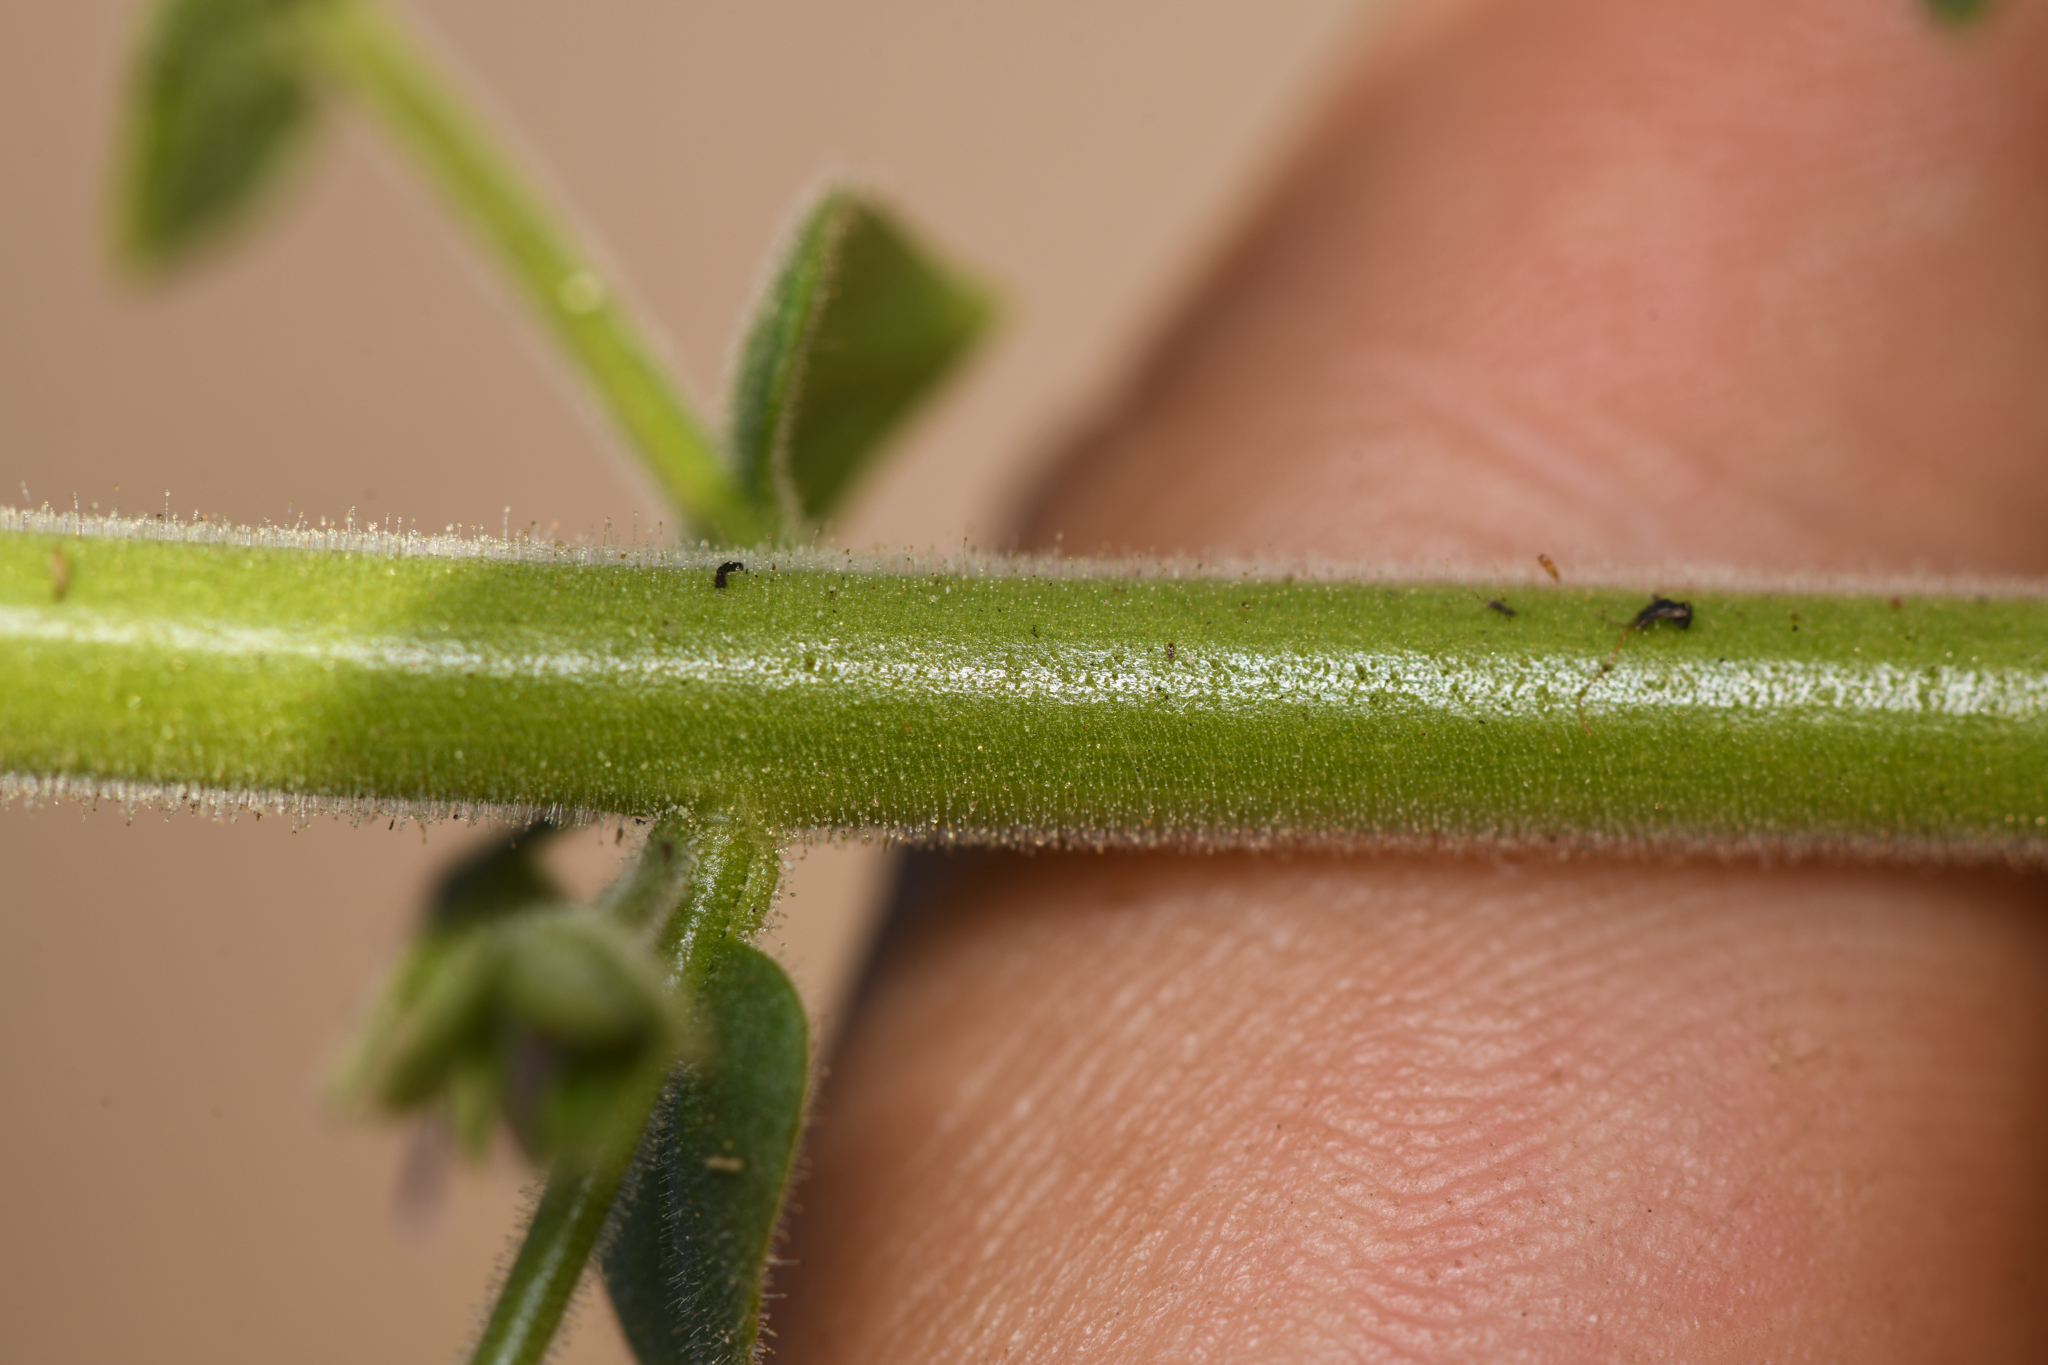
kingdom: Plantae
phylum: Tracheophyta
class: Magnoliopsida
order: Lamiales
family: Plantaginaceae
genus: Sairocarpus
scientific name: Sairocarpus nuttallianus
